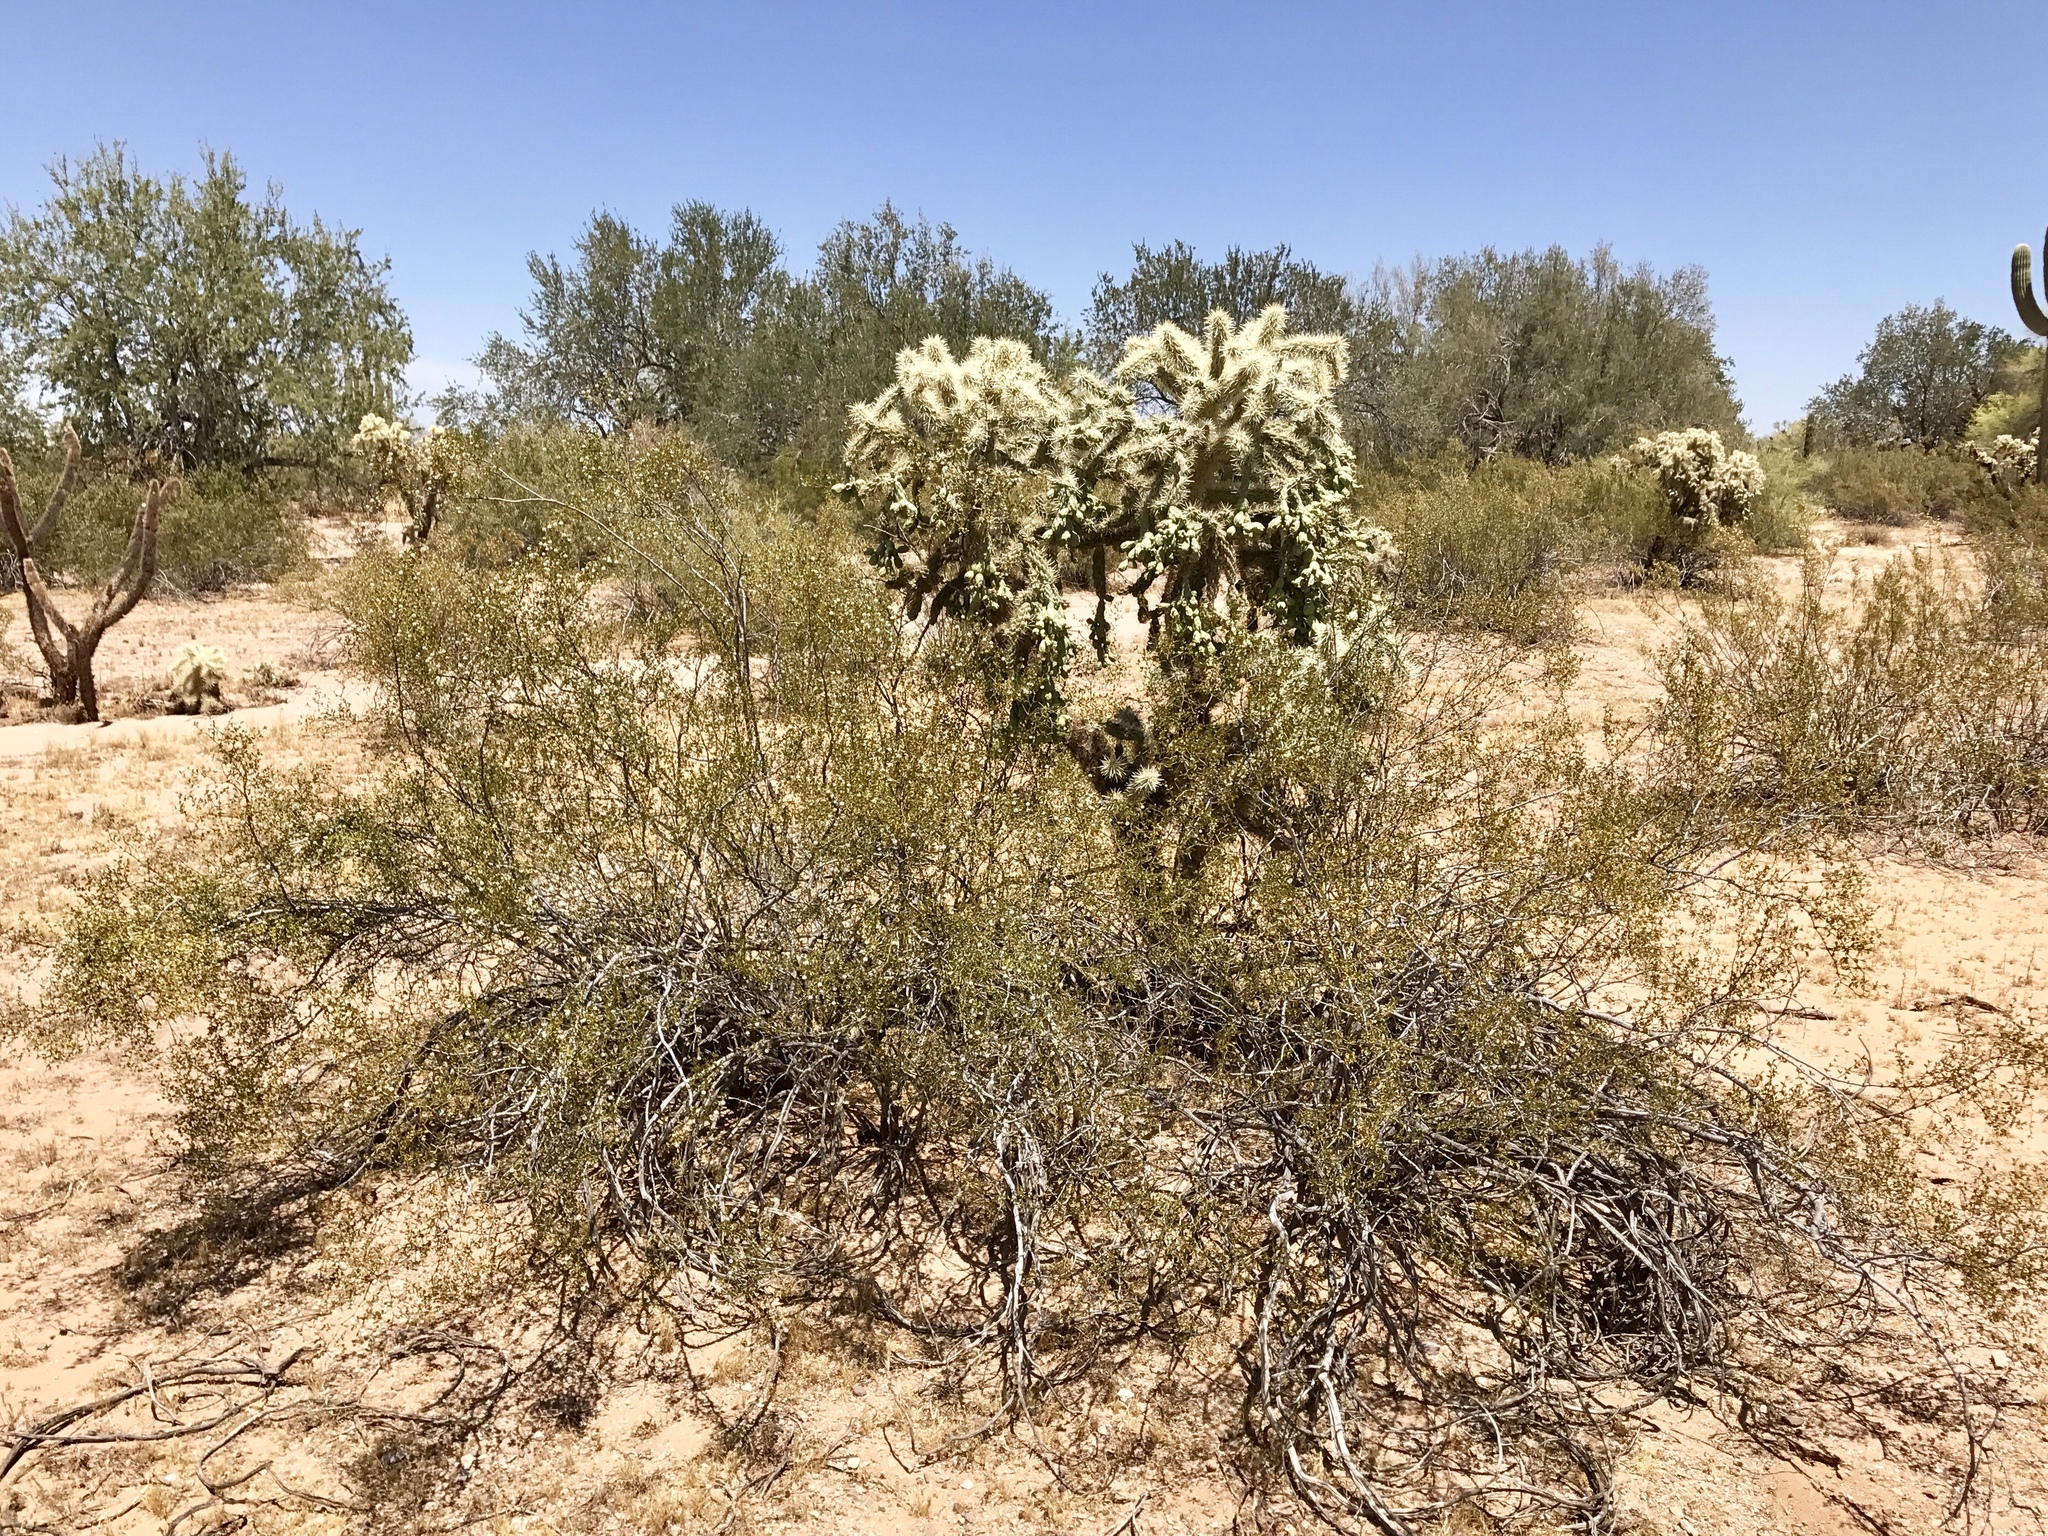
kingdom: Plantae
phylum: Tracheophyta
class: Magnoliopsida
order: Caryophyllales
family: Cactaceae
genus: Cylindropuntia
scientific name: Cylindropuntia fulgida
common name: Jumping cholla
